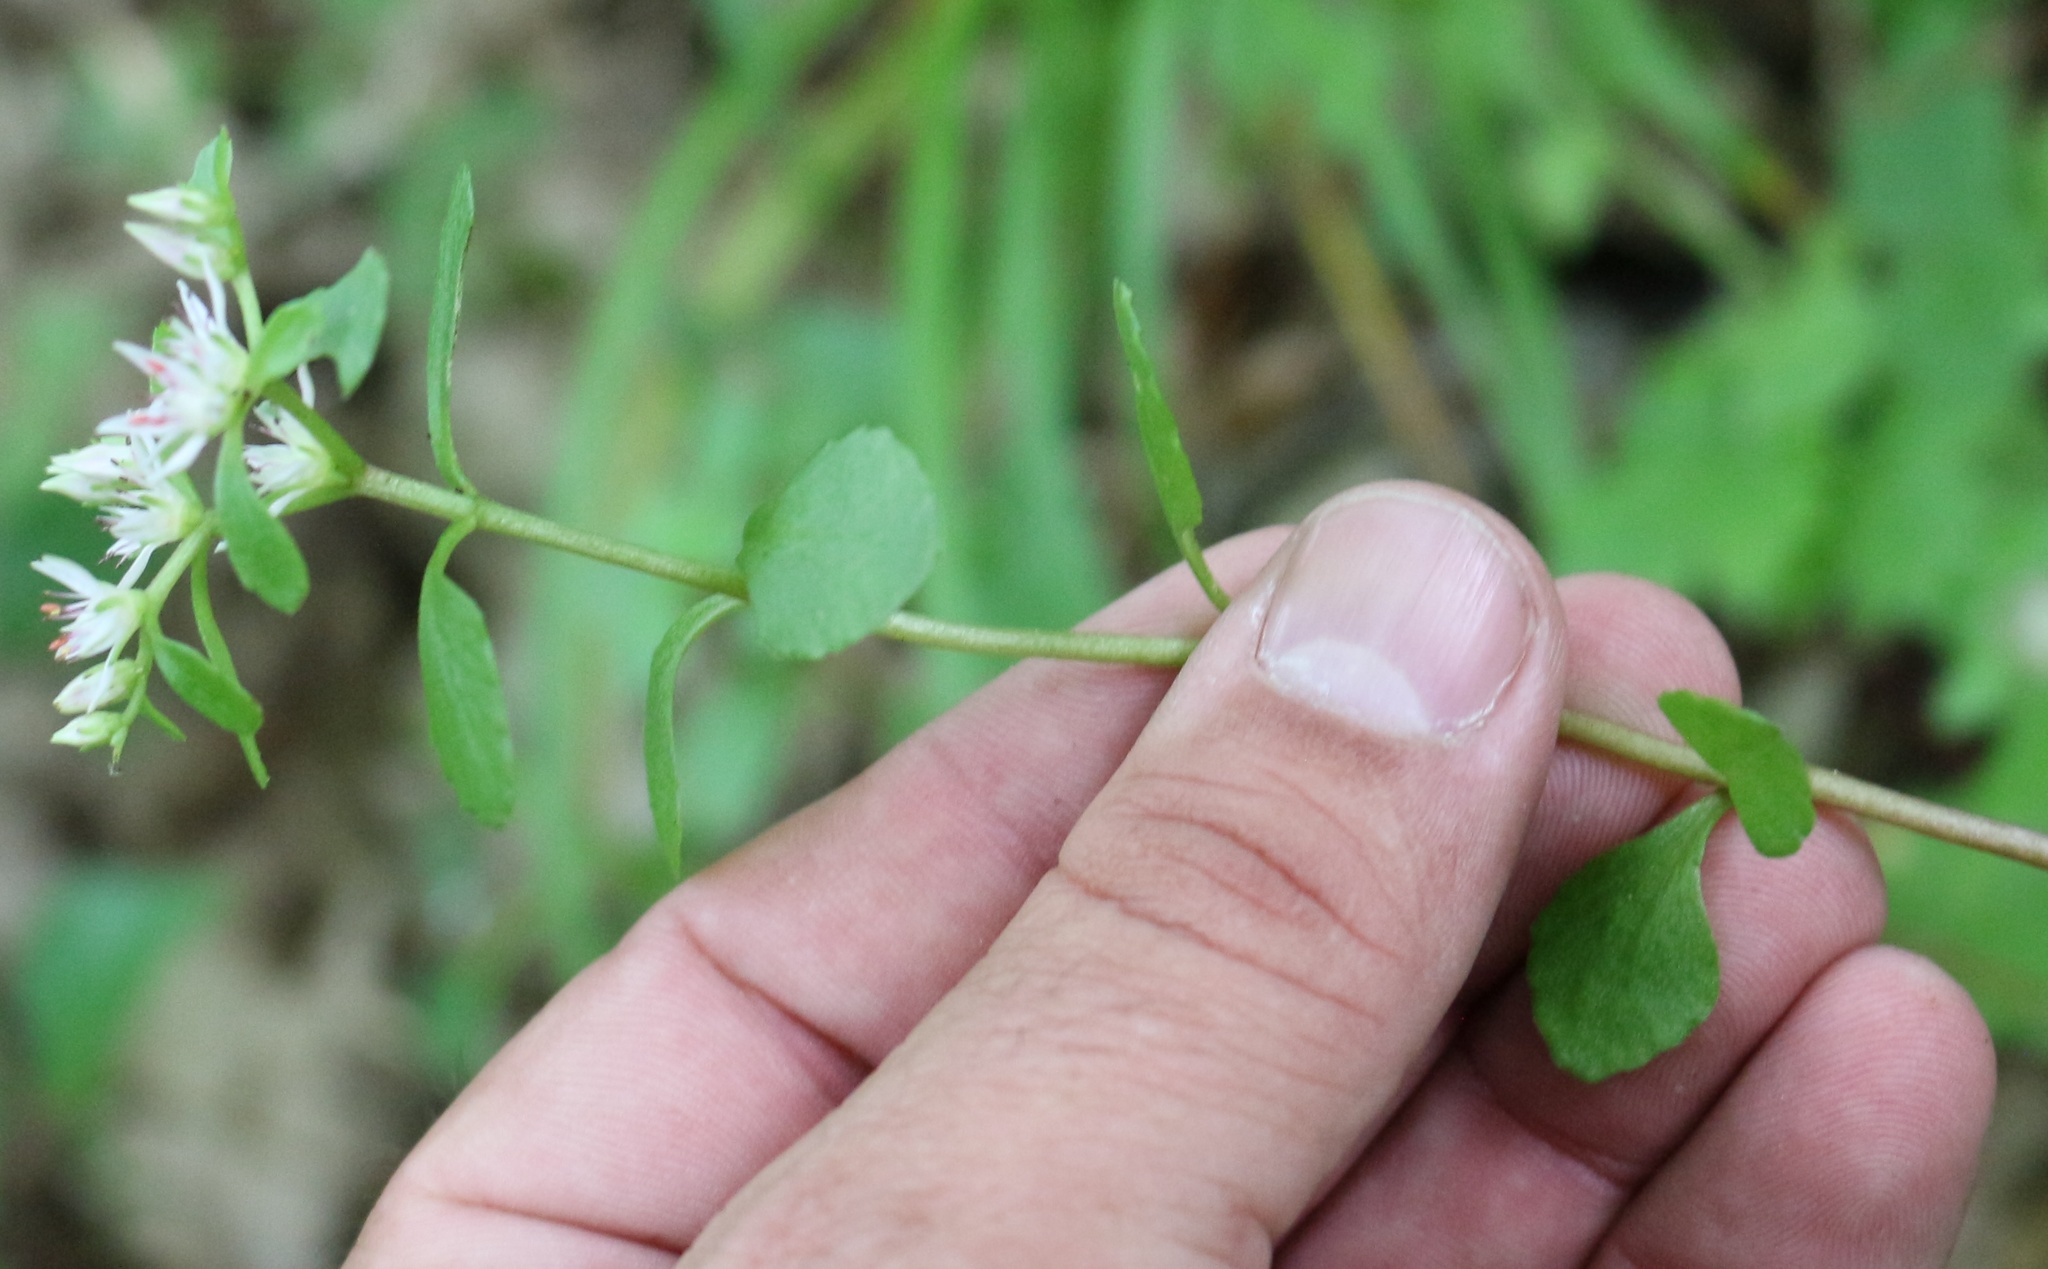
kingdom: Plantae
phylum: Tracheophyta
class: Magnoliopsida
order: Saxifragales
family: Crassulaceae
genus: Phedimus
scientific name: Phedimus stolonifer
